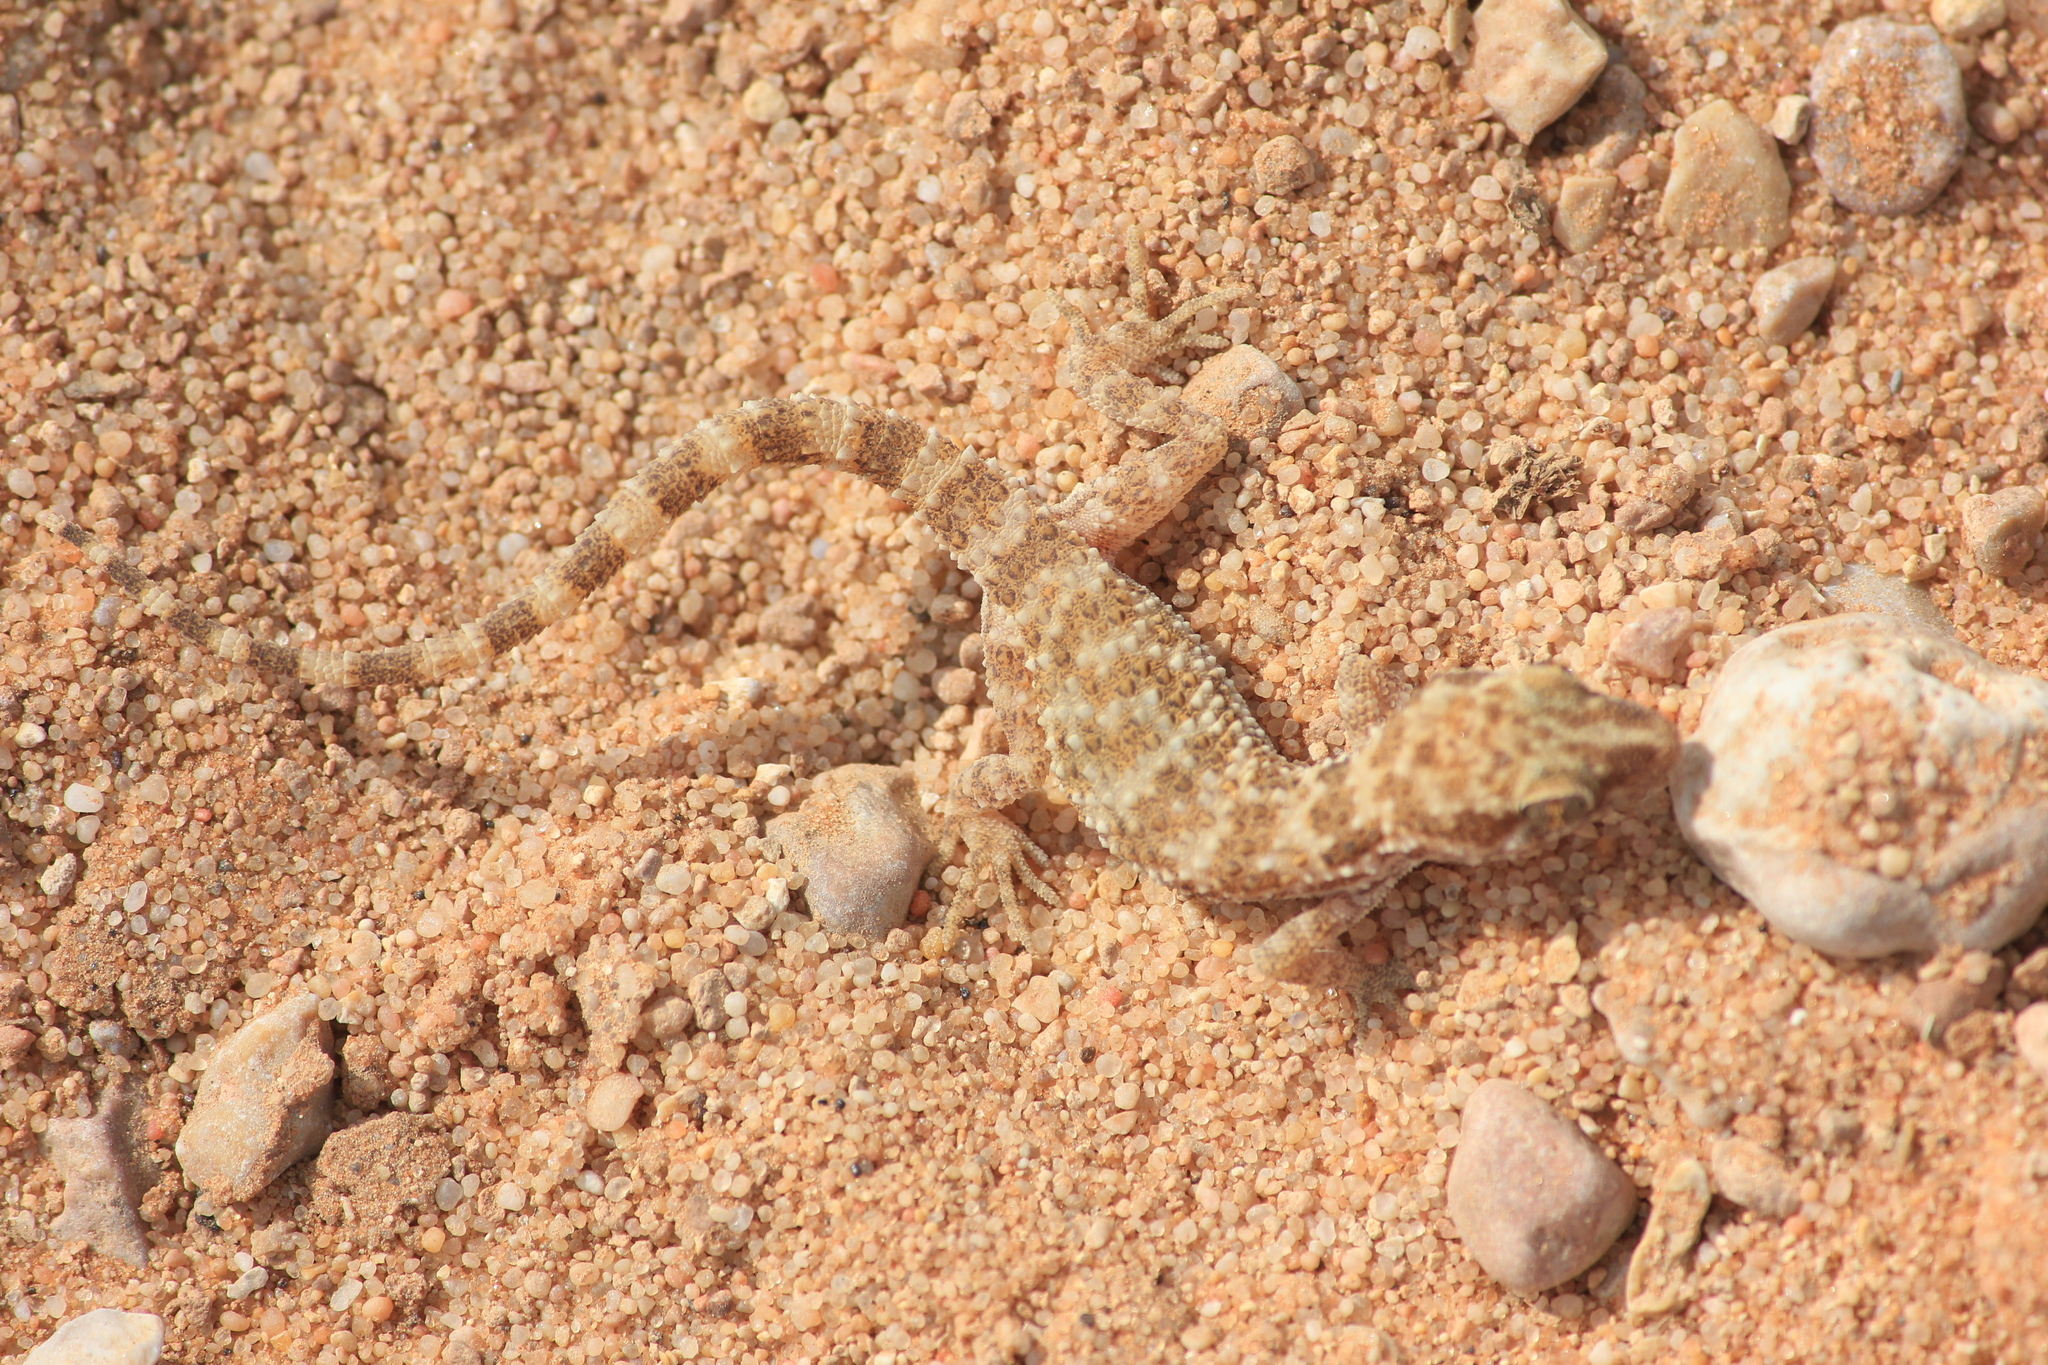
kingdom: Animalia
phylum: Chordata
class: Squamata
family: Gekkonidae
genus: Bunopus
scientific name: Bunopus tuberculatus
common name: Southern tuberculated gecko
